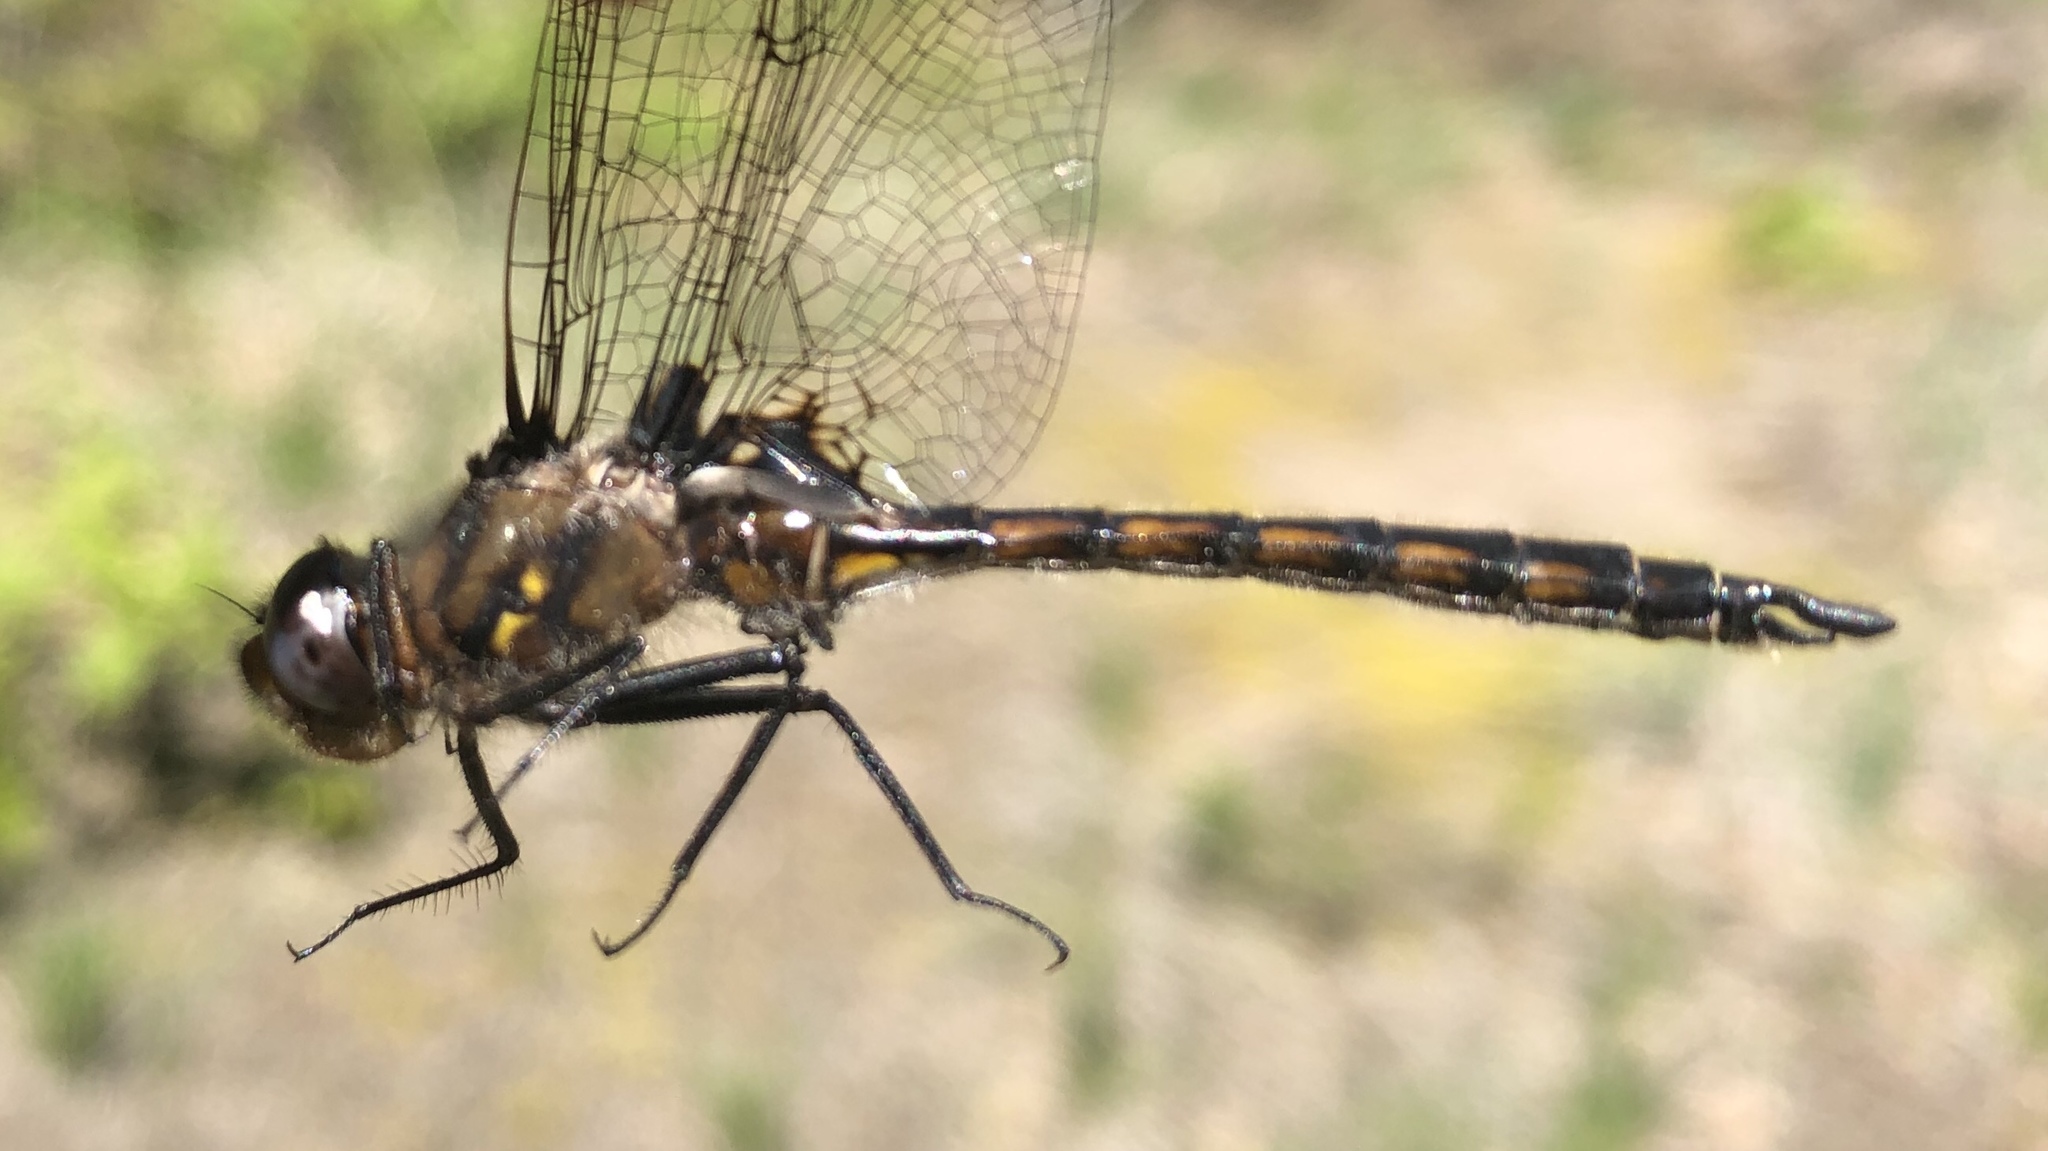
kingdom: Animalia
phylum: Arthropoda
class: Insecta
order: Odonata
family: Corduliidae
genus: Epitheca
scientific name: Epitheca cynosura
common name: Common baskettail
